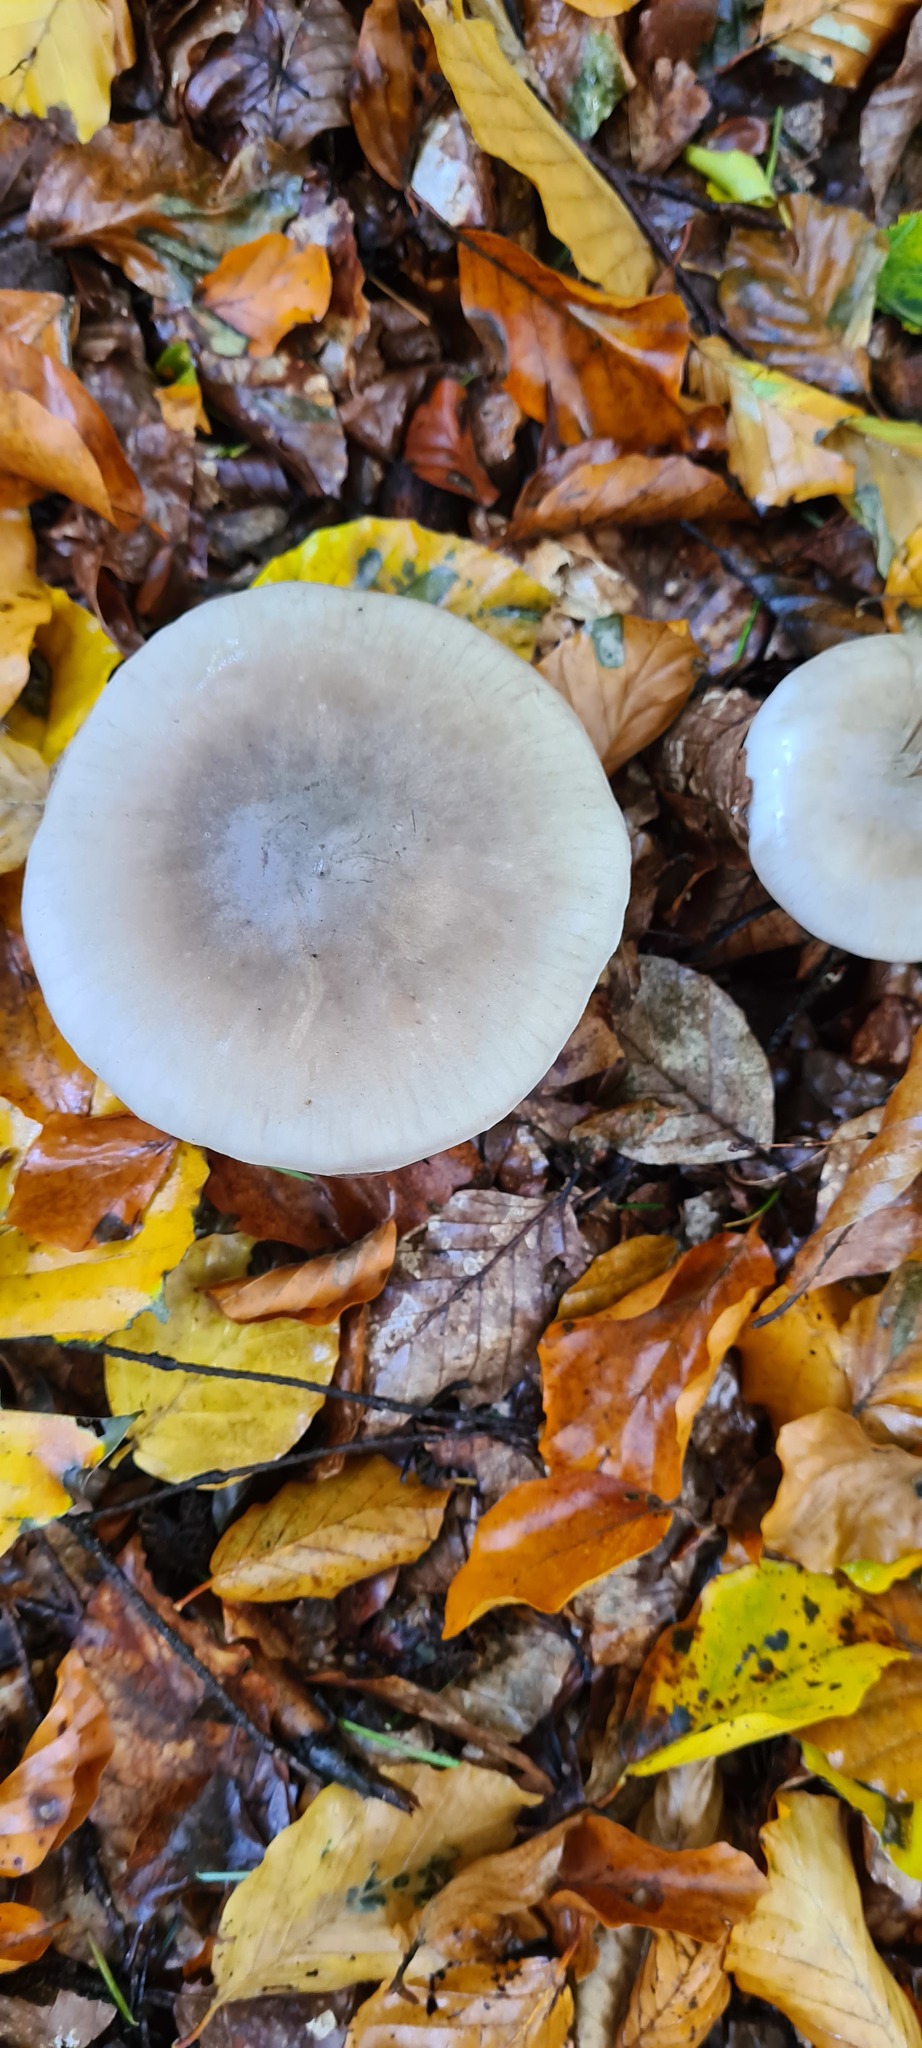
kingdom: Fungi
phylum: Basidiomycota
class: Agaricomycetes
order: Agaricales
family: Tricholomataceae
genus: Clitocybe
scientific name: Clitocybe nebularis
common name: Clouded agaric
